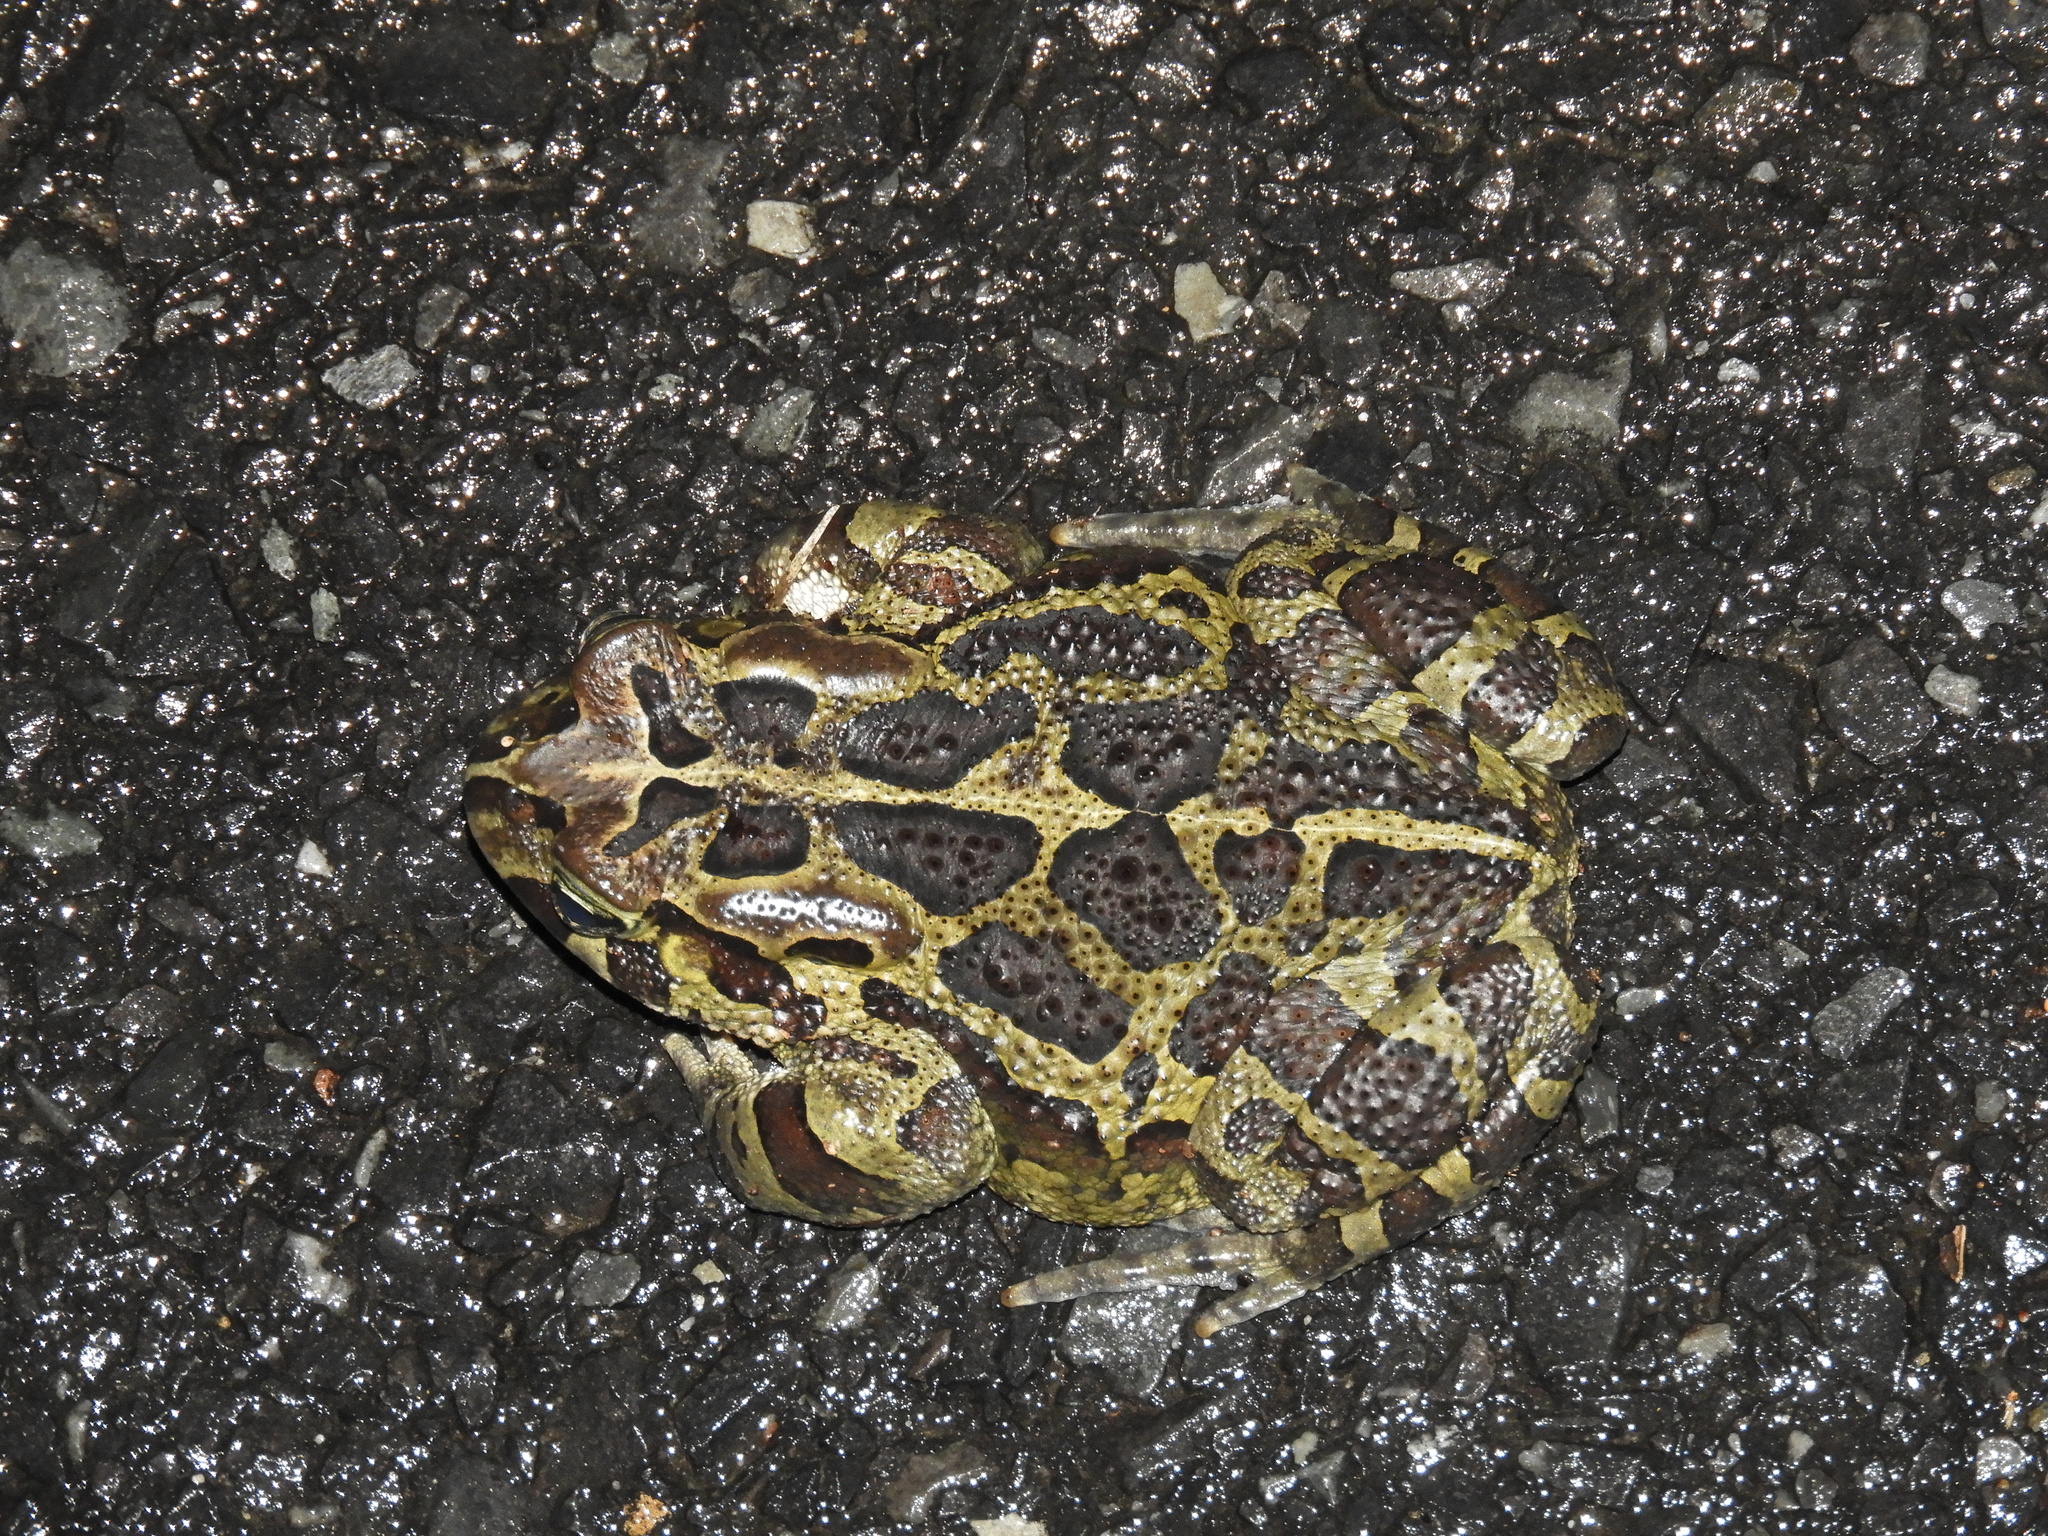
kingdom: Animalia
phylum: Chordata
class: Amphibia
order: Anura
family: Bufonidae
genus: Sclerophrys
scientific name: Sclerophrys pantherina
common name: Panther toad
